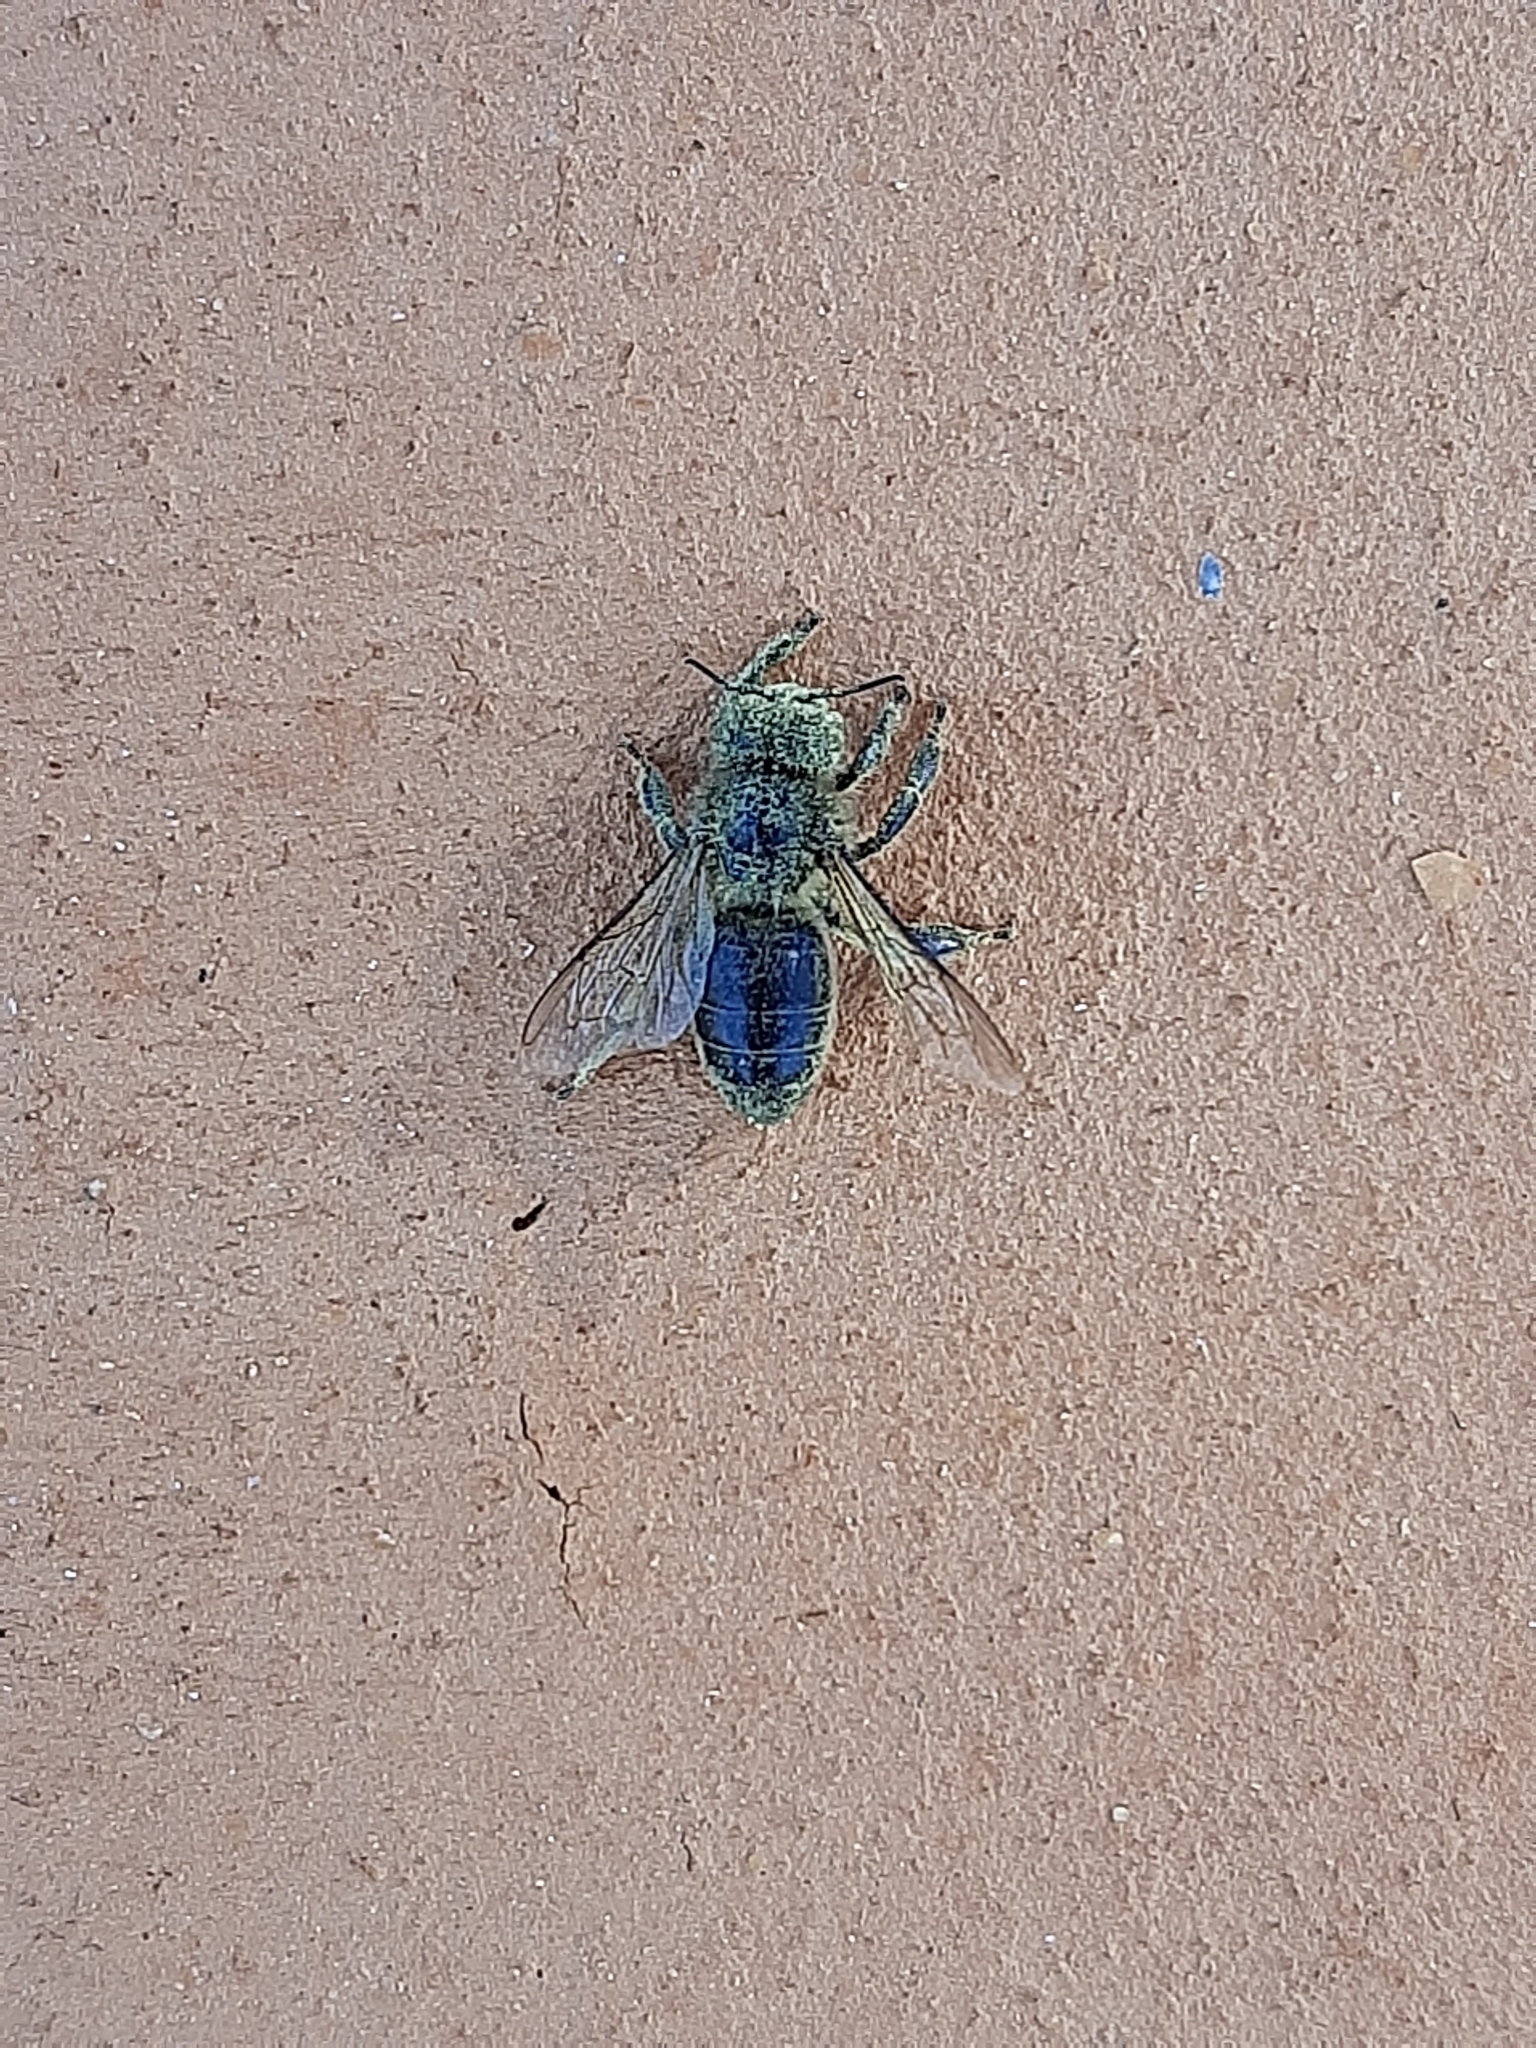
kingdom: Animalia
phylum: Arthropoda
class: Insecta
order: Hymenoptera
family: Apidae
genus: Apis
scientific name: Apis mellifera
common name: Honey bee
